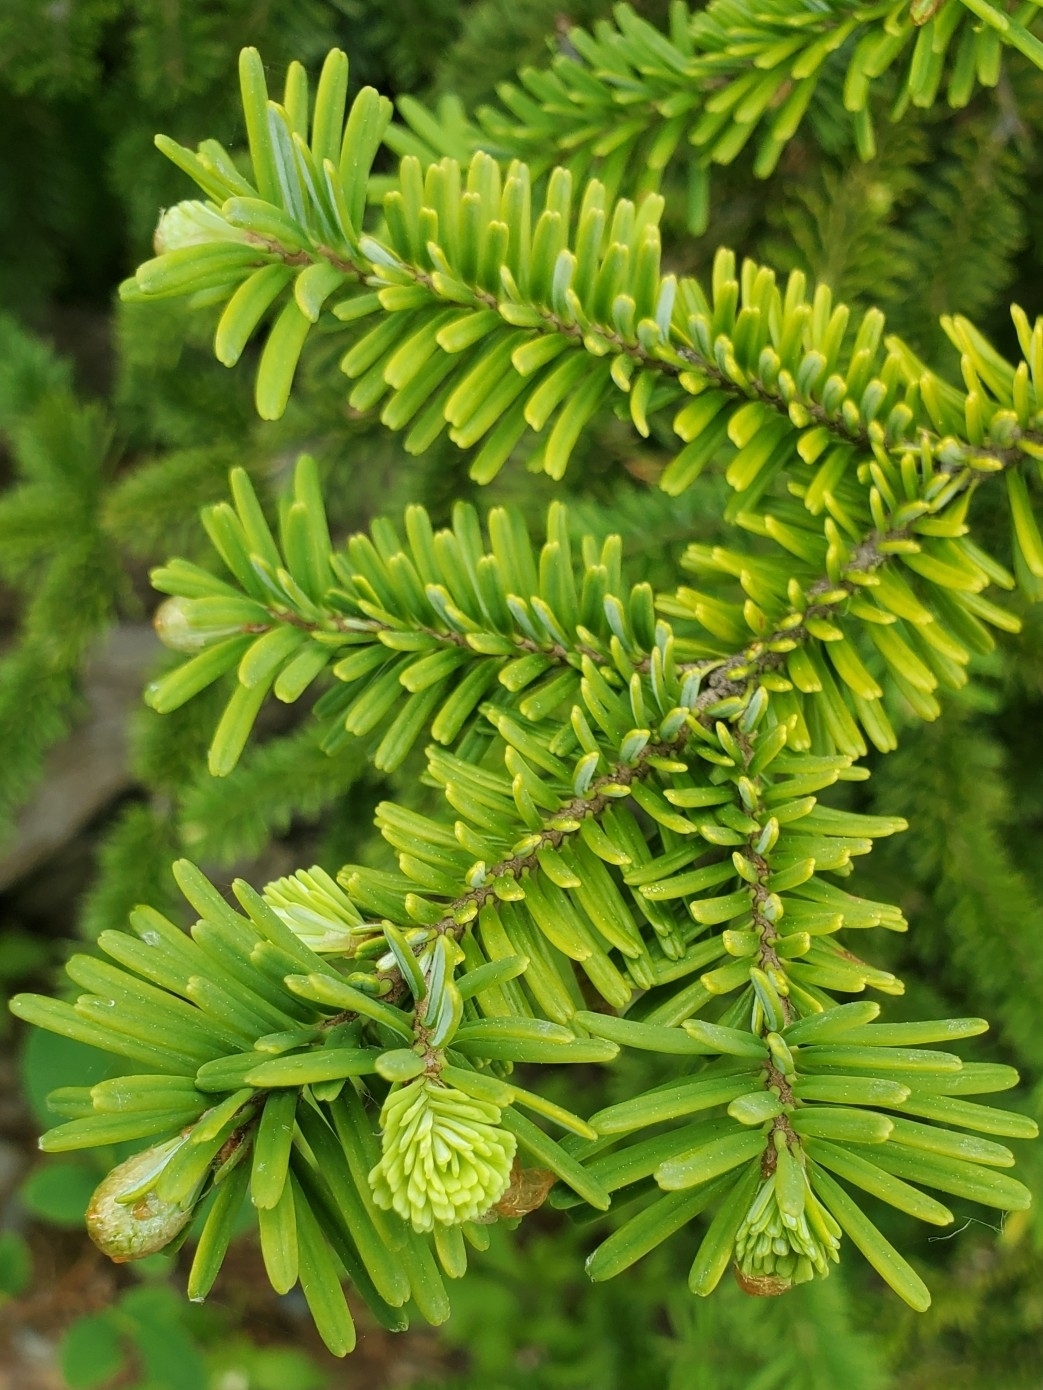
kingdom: Plantae
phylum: Tracheophyta
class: Pinopsida
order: Pinales
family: Pinaceae
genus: Abies
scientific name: Abies amabilis
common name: Pacific silver fir
